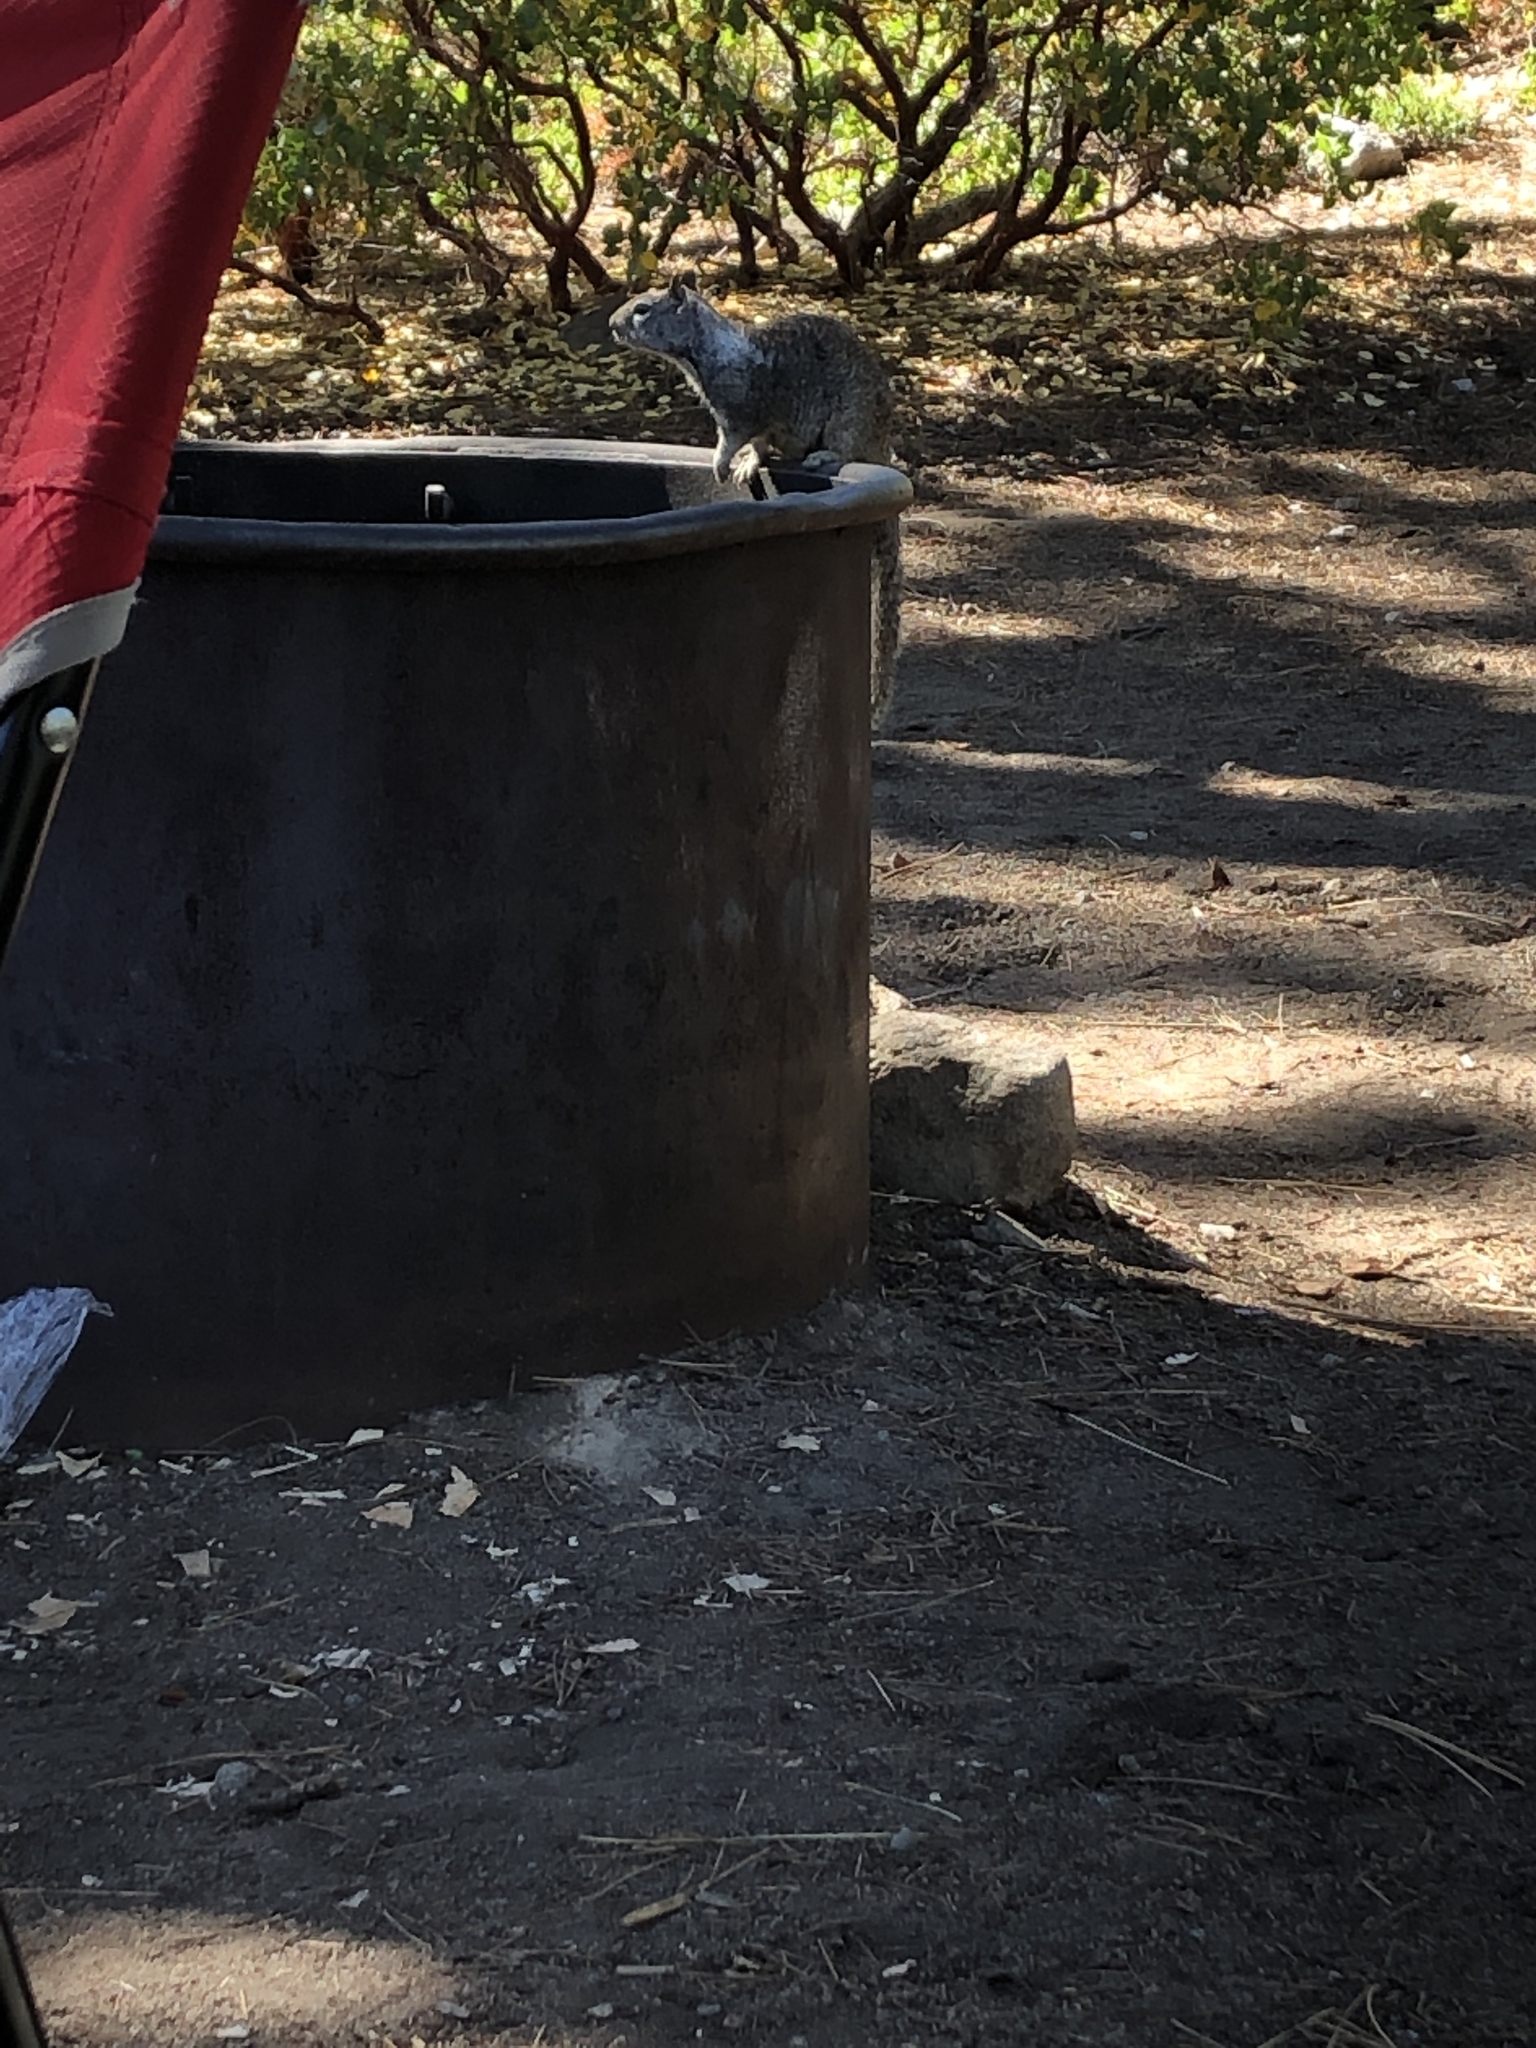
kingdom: Animalia
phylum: Chordata
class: Mammalia
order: Rodentia
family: Sciuridae
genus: Otospermophilus
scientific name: Otospermophilus beecheyi
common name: California ground squirrel
